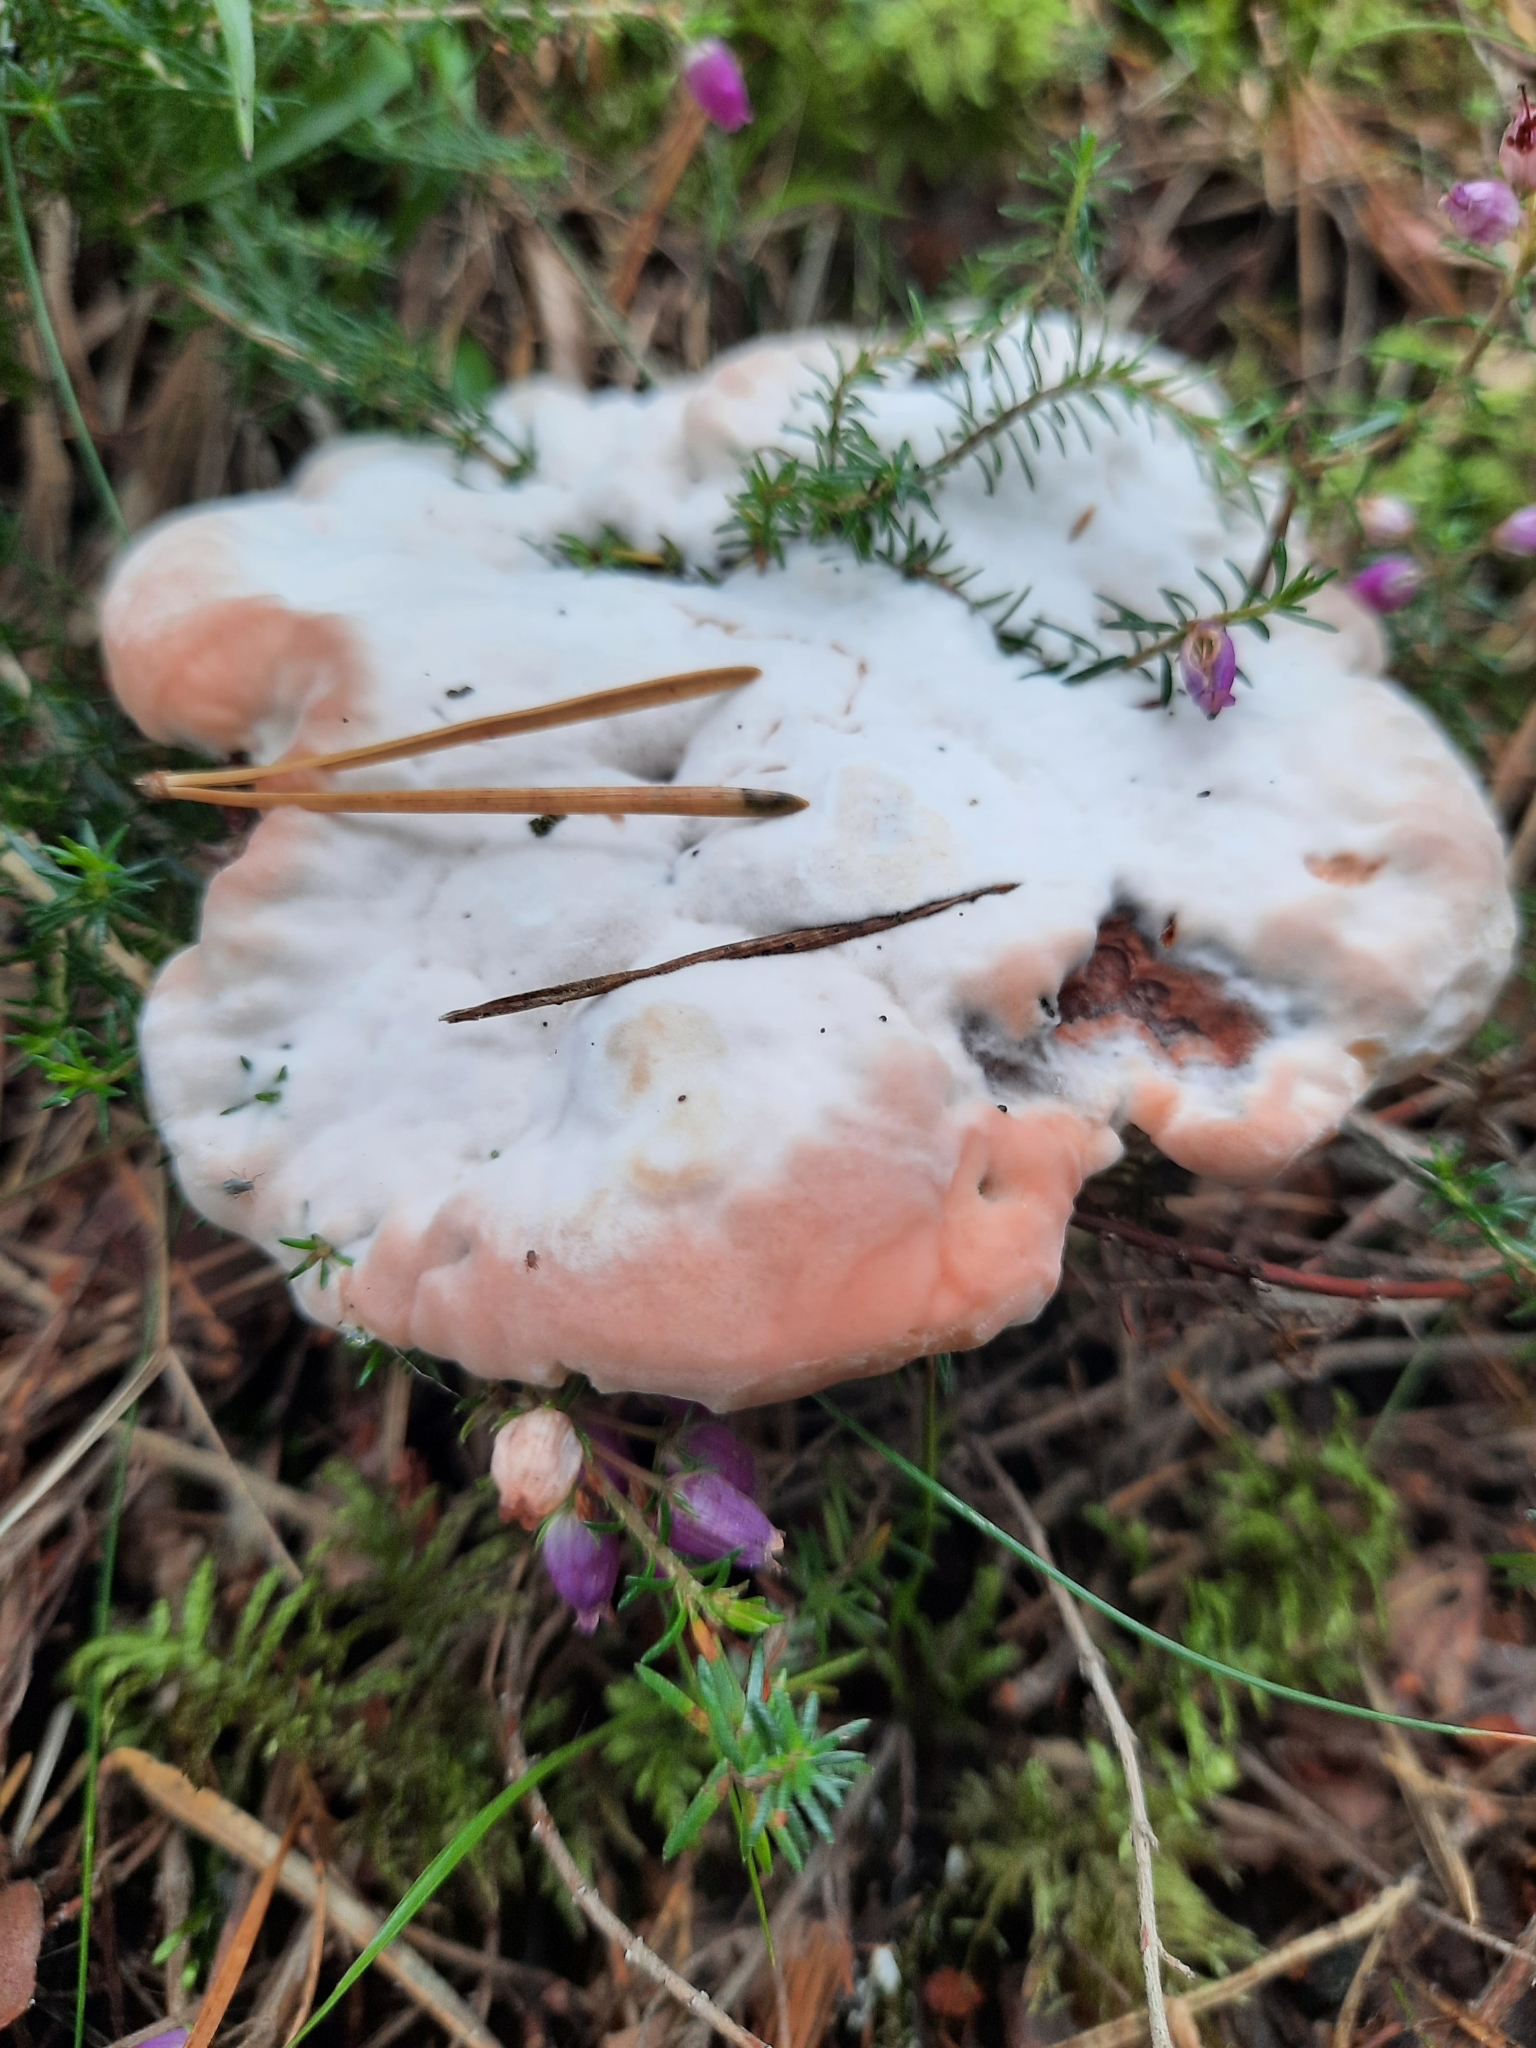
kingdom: Fungi
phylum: Basidiomycota
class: Agaricomycetes
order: Thelephorales
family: Bankeraceae
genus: Hydnellum
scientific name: Hydnellum peckii
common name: Devil's tooth
